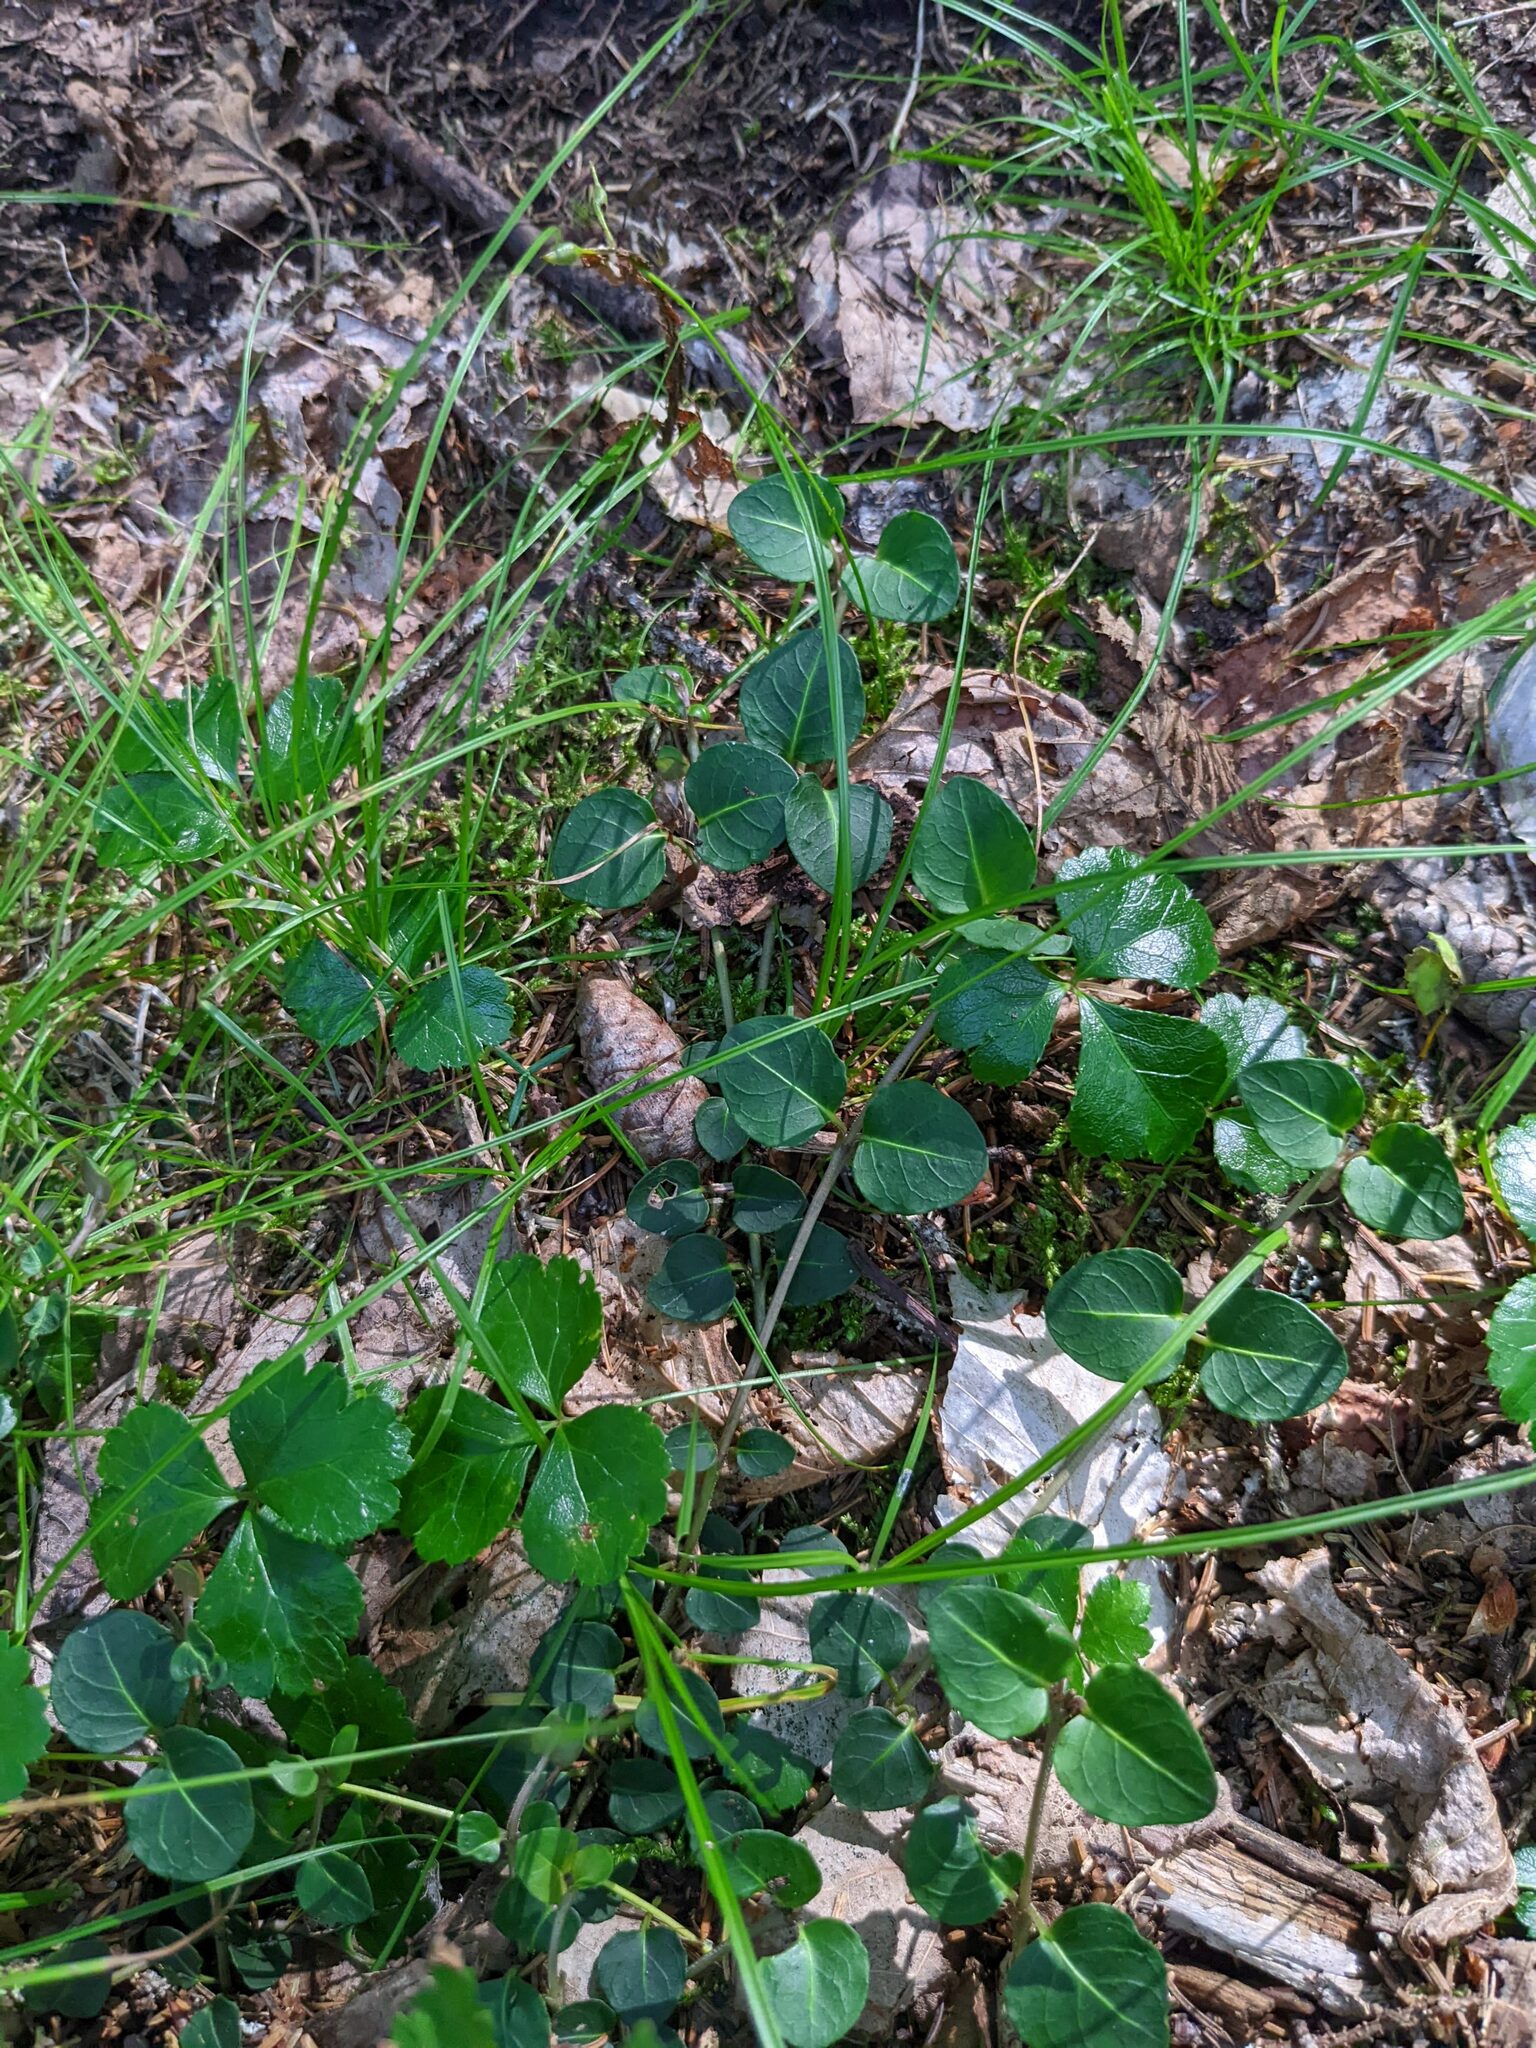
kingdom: Plantae
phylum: Tracheophyta
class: Magnoliopsida
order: Gentianales
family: Rubiaceae
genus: Mitchella
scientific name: Mitchella repens
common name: Partridge-berry
